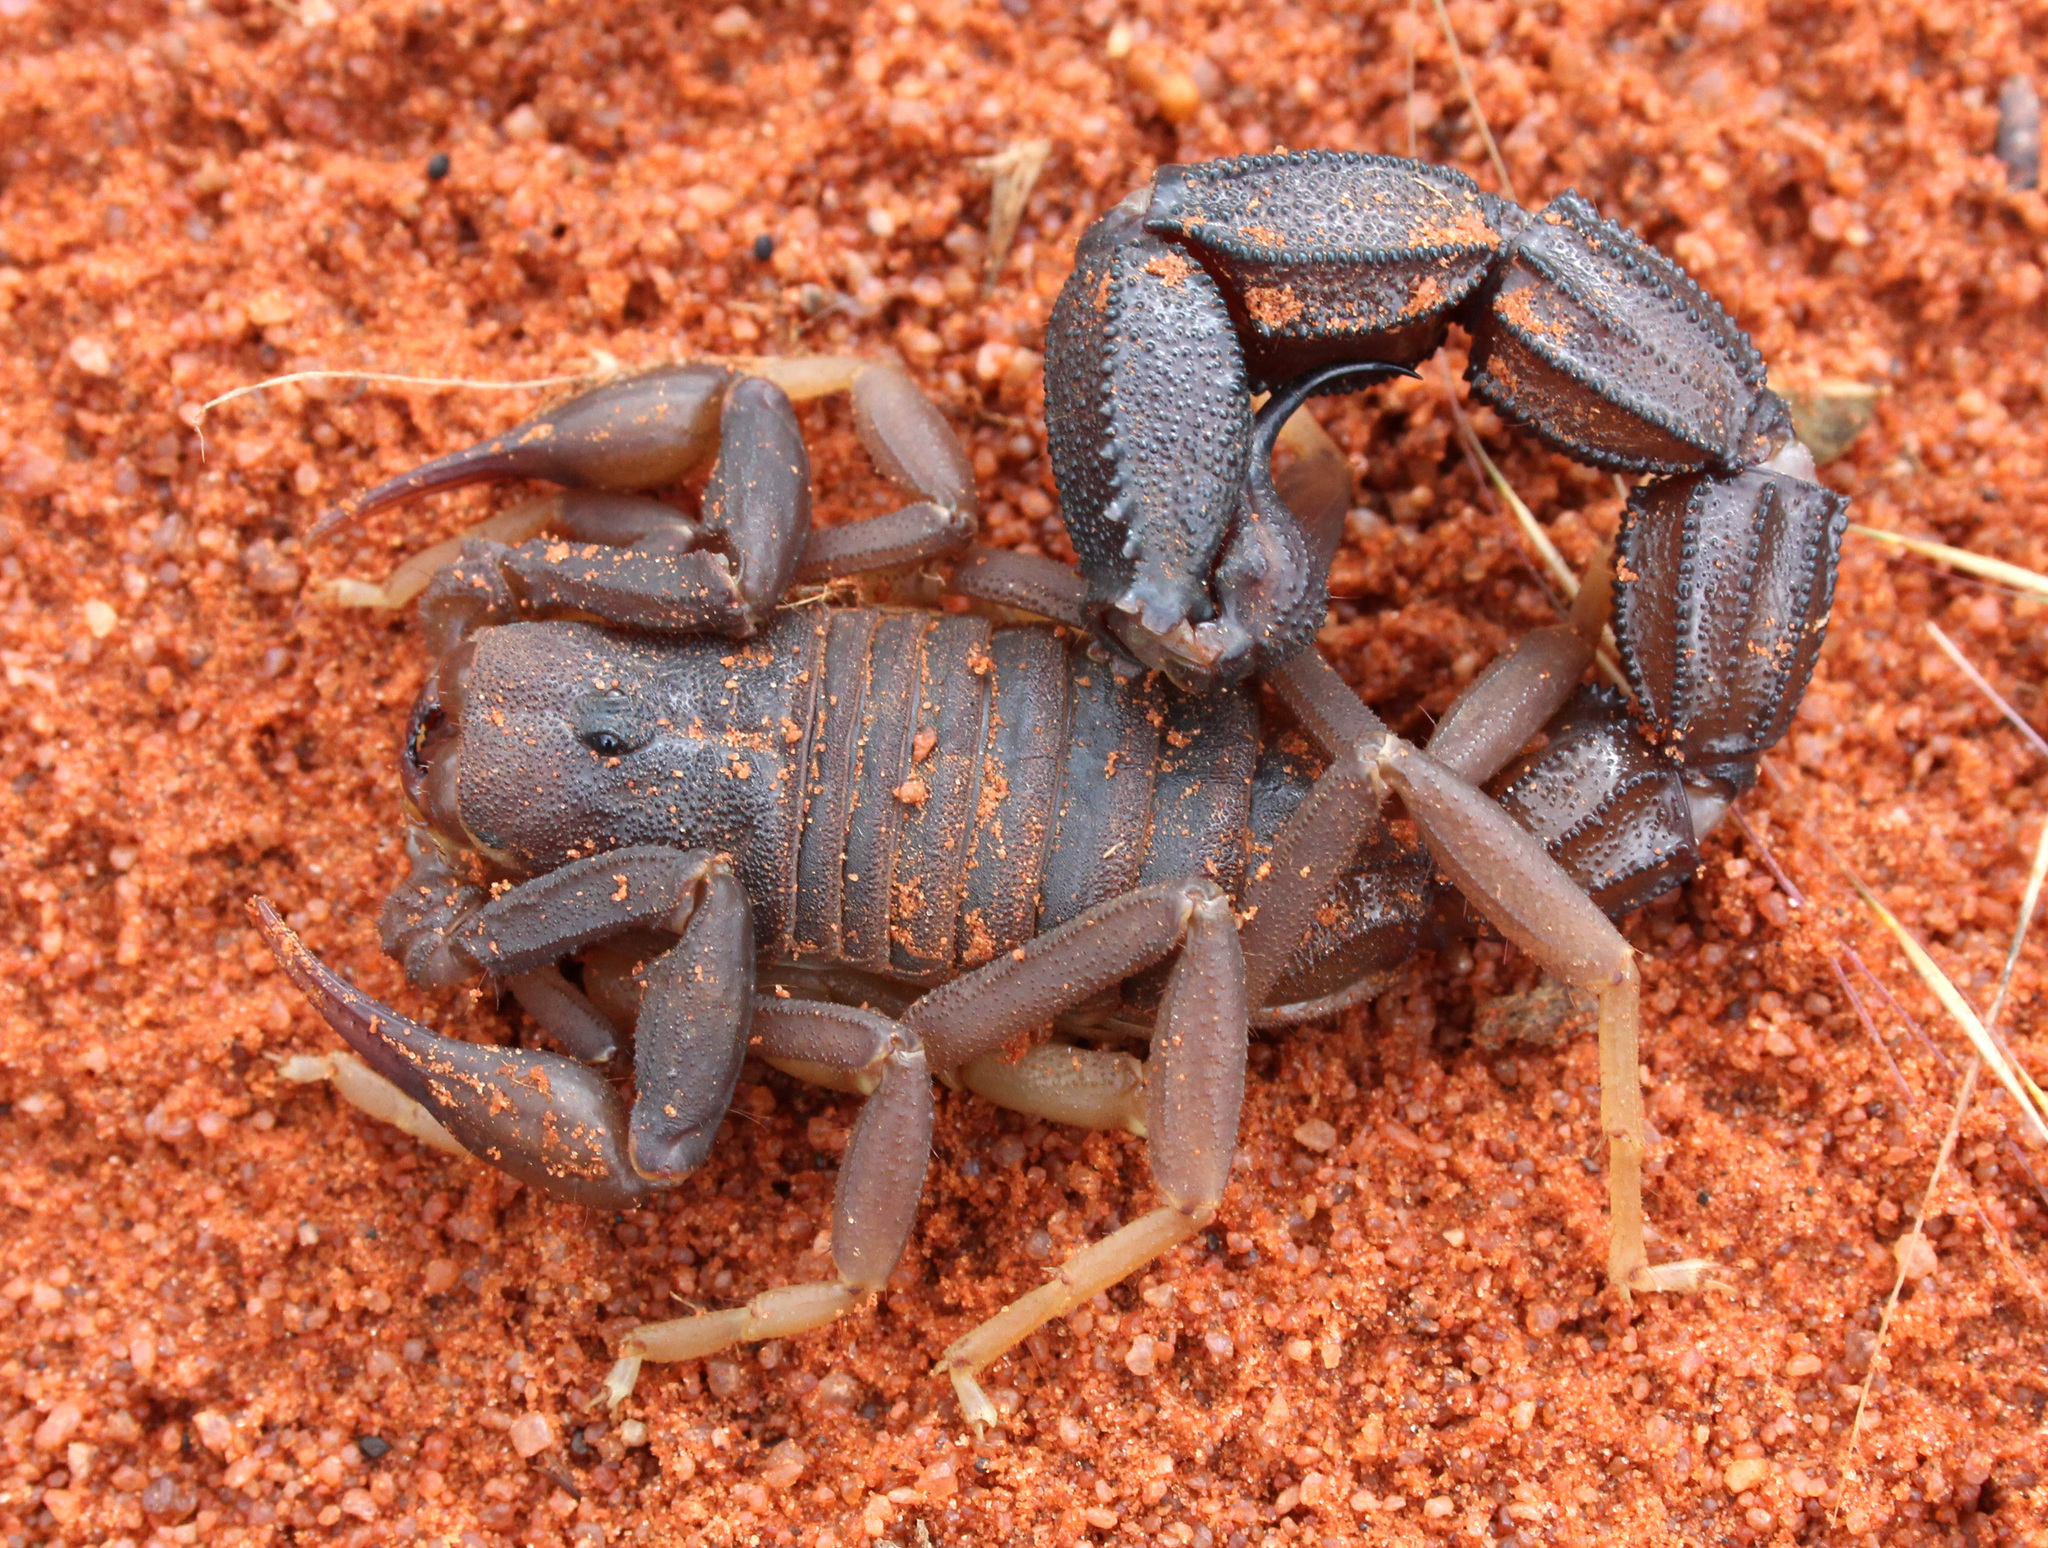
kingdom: Animalia
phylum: Arthropoda
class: Arachnida
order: Scorpiones
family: Buthidae
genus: Parabuthus
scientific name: Parabuthus granulatus
